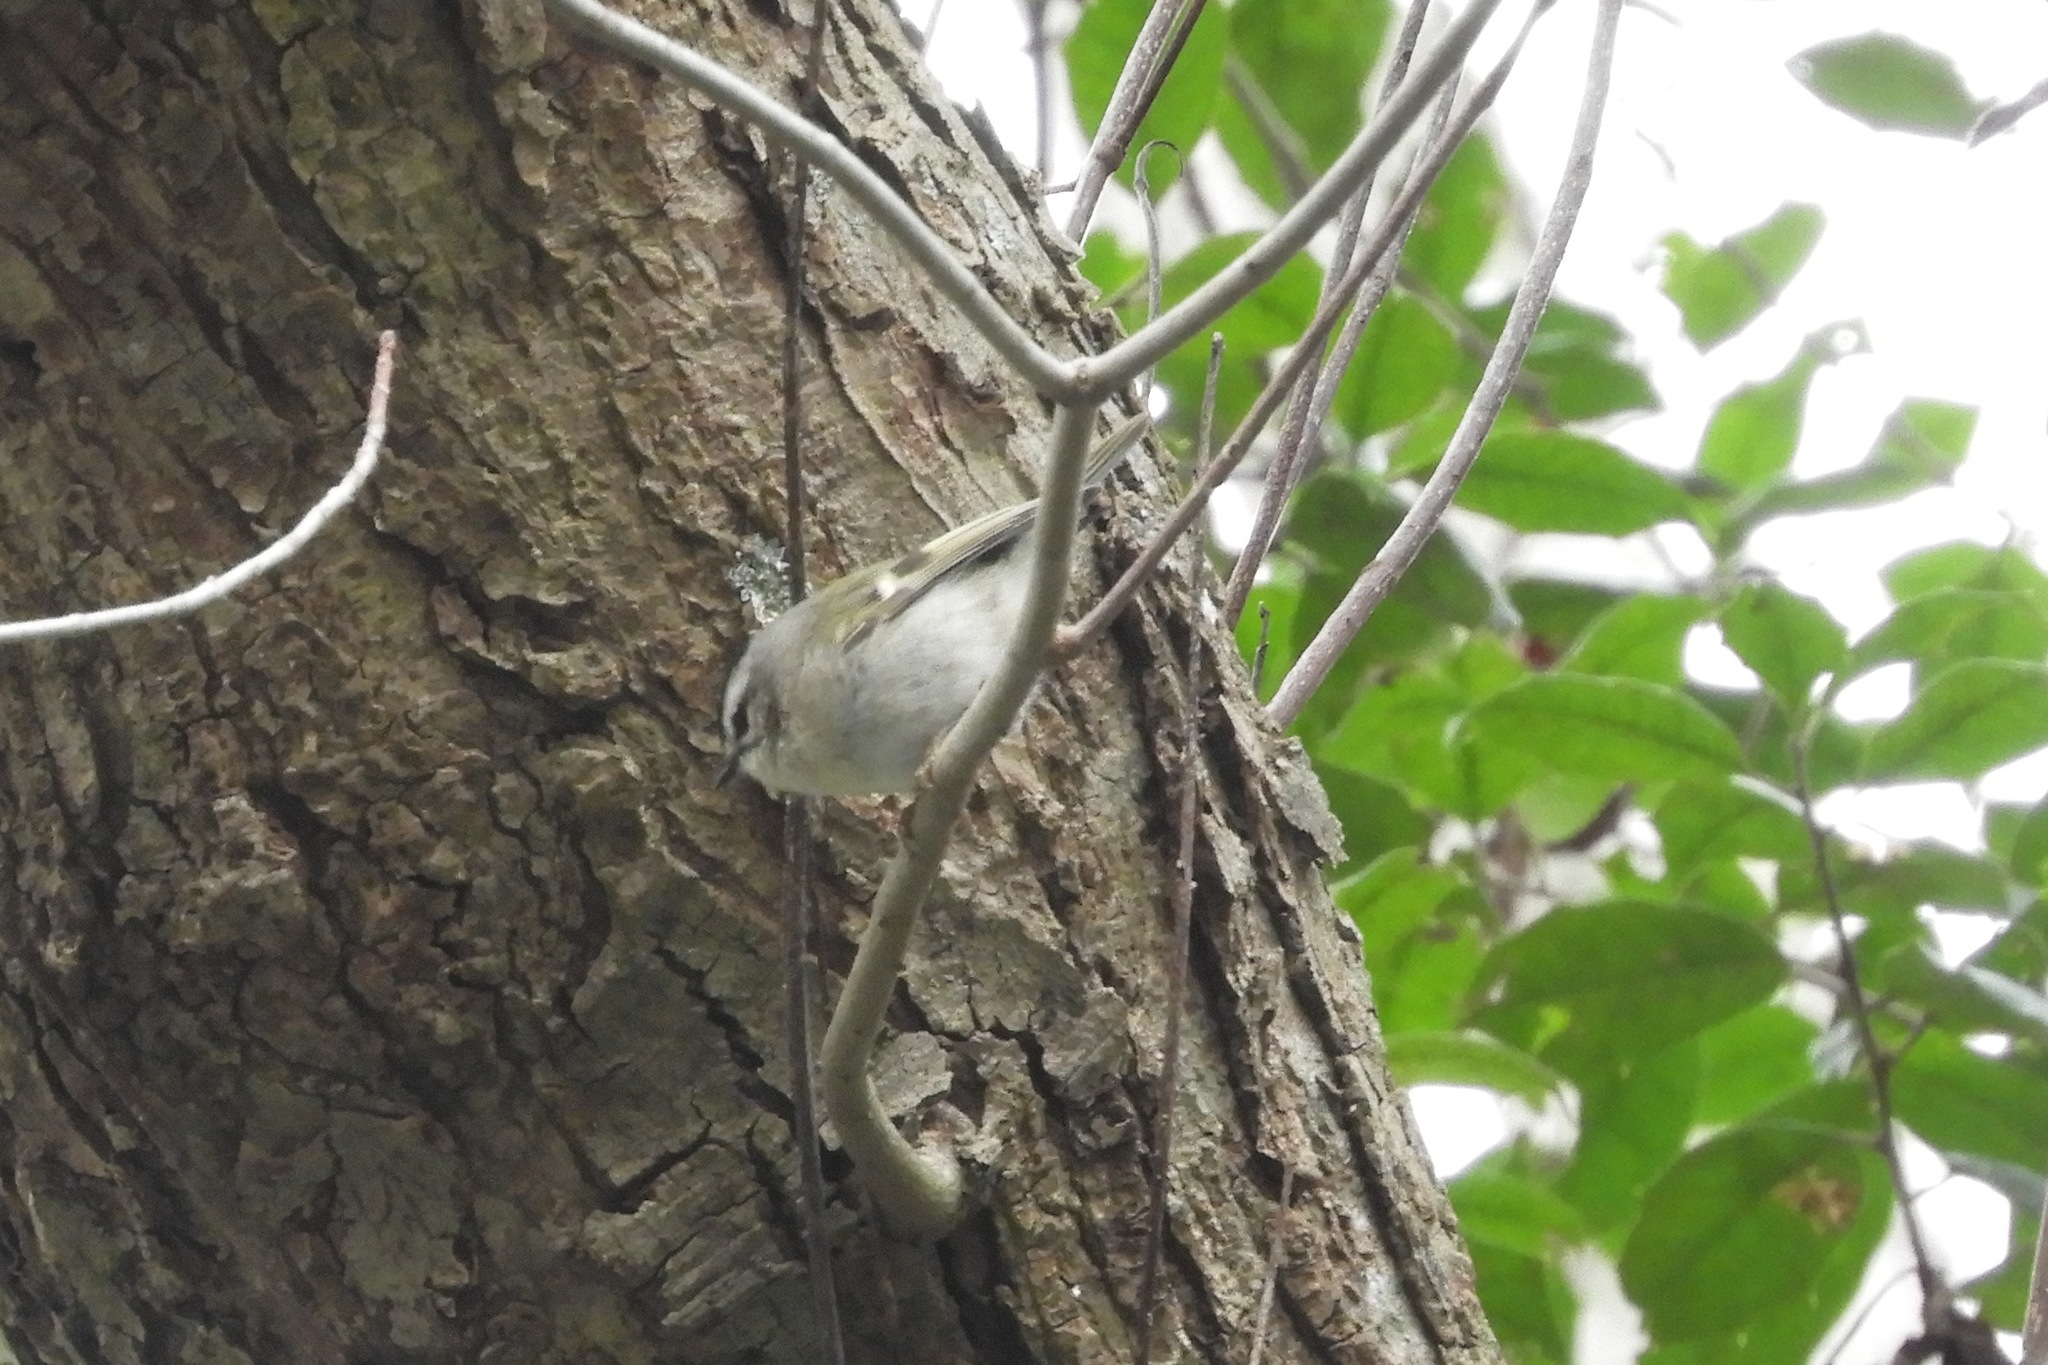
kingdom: Animalia
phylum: Chordata
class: Aves
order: Passeriformes
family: Regulidae
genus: Regulus
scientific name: Regulus satrapa
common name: Golden-crowned kinglet
